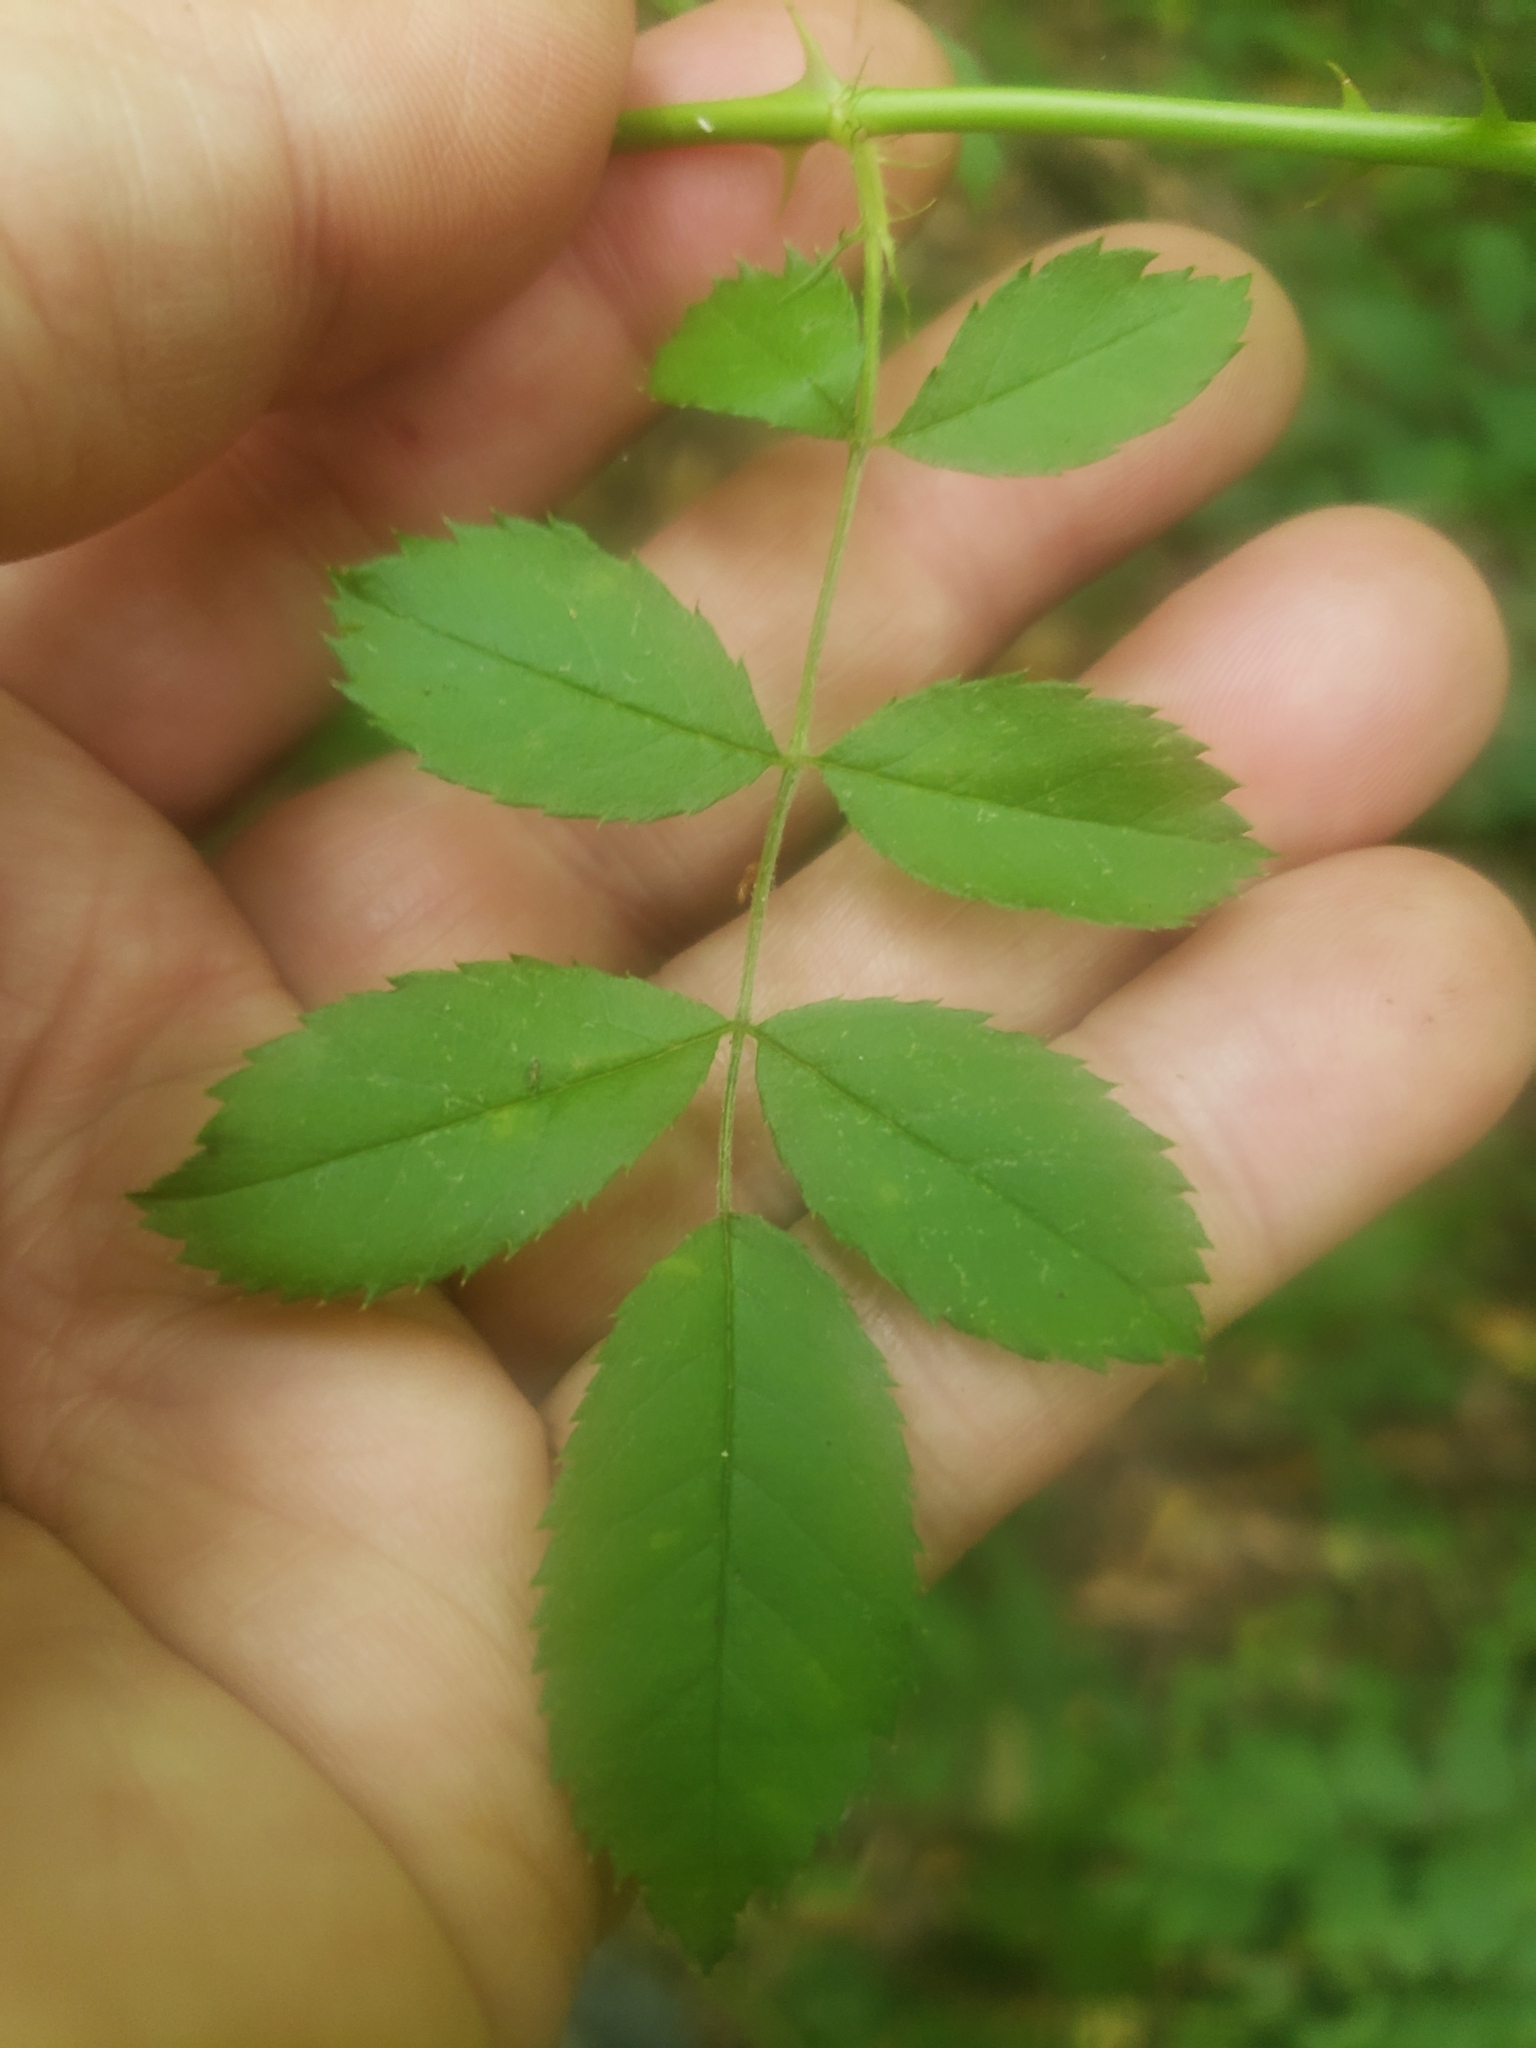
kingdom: Fungi
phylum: Basidiomycota
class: Pucciniomycetes
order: Pucciniales
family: Phragmidiaceae
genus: Phragmidium
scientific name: Phragmidium rosae-multiflorae
